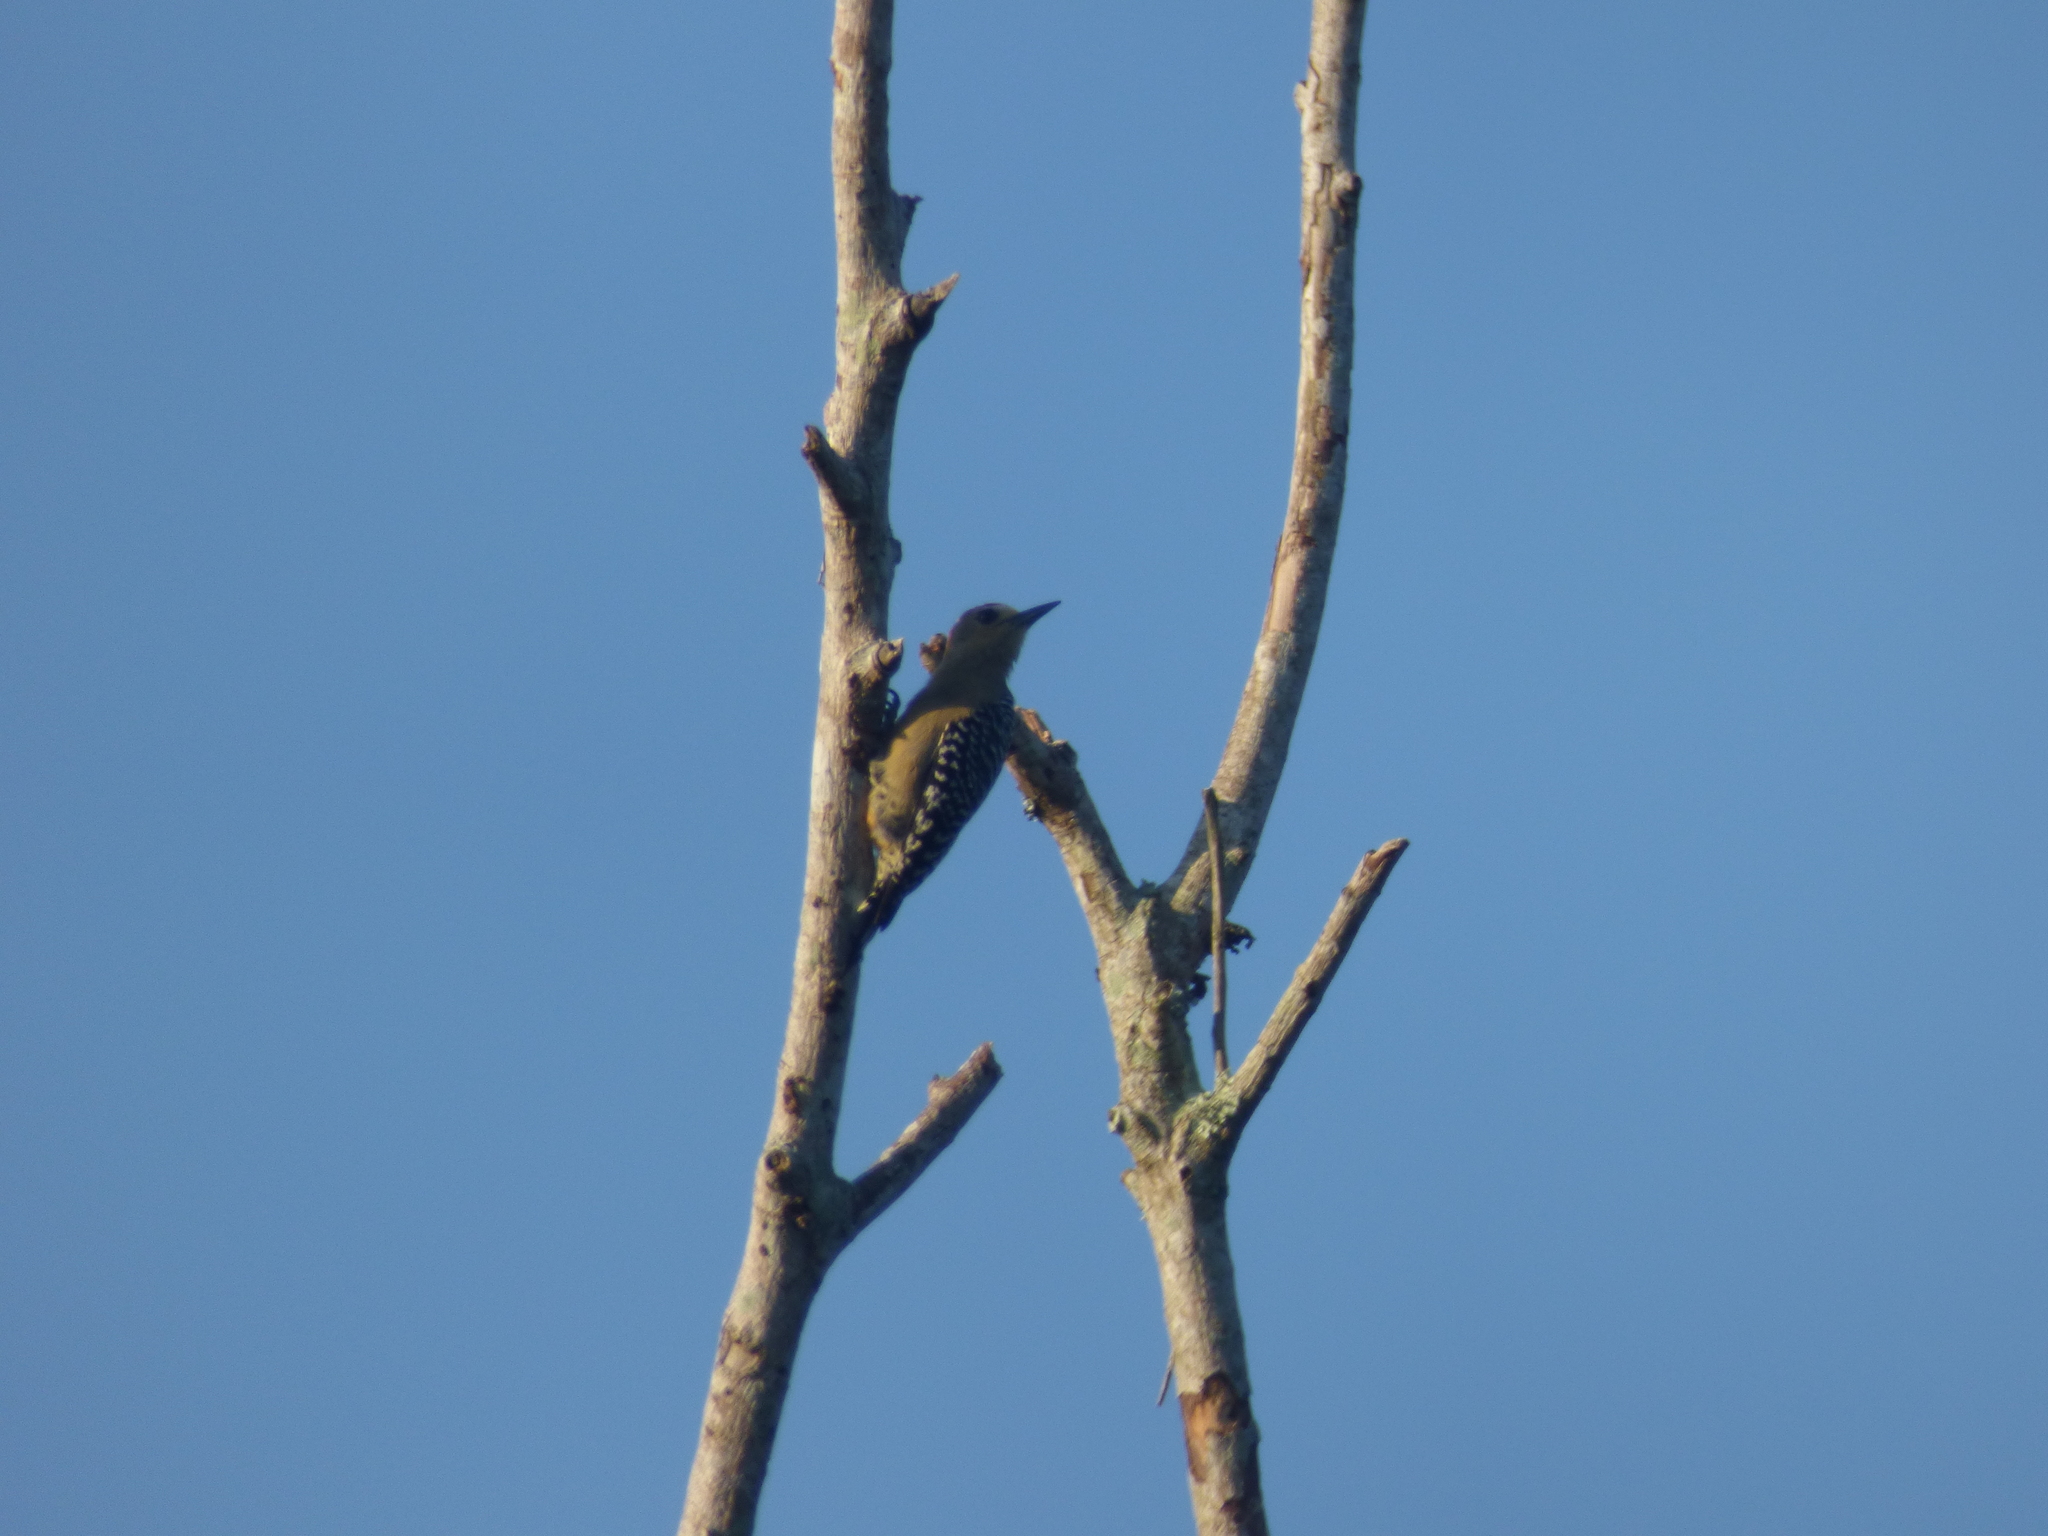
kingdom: Animalia
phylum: Chordata
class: Aves
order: Piciformes
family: Picidae
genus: Melanerpes
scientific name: Melanerpes rubricapillus
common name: Red-crowned woodpecker
